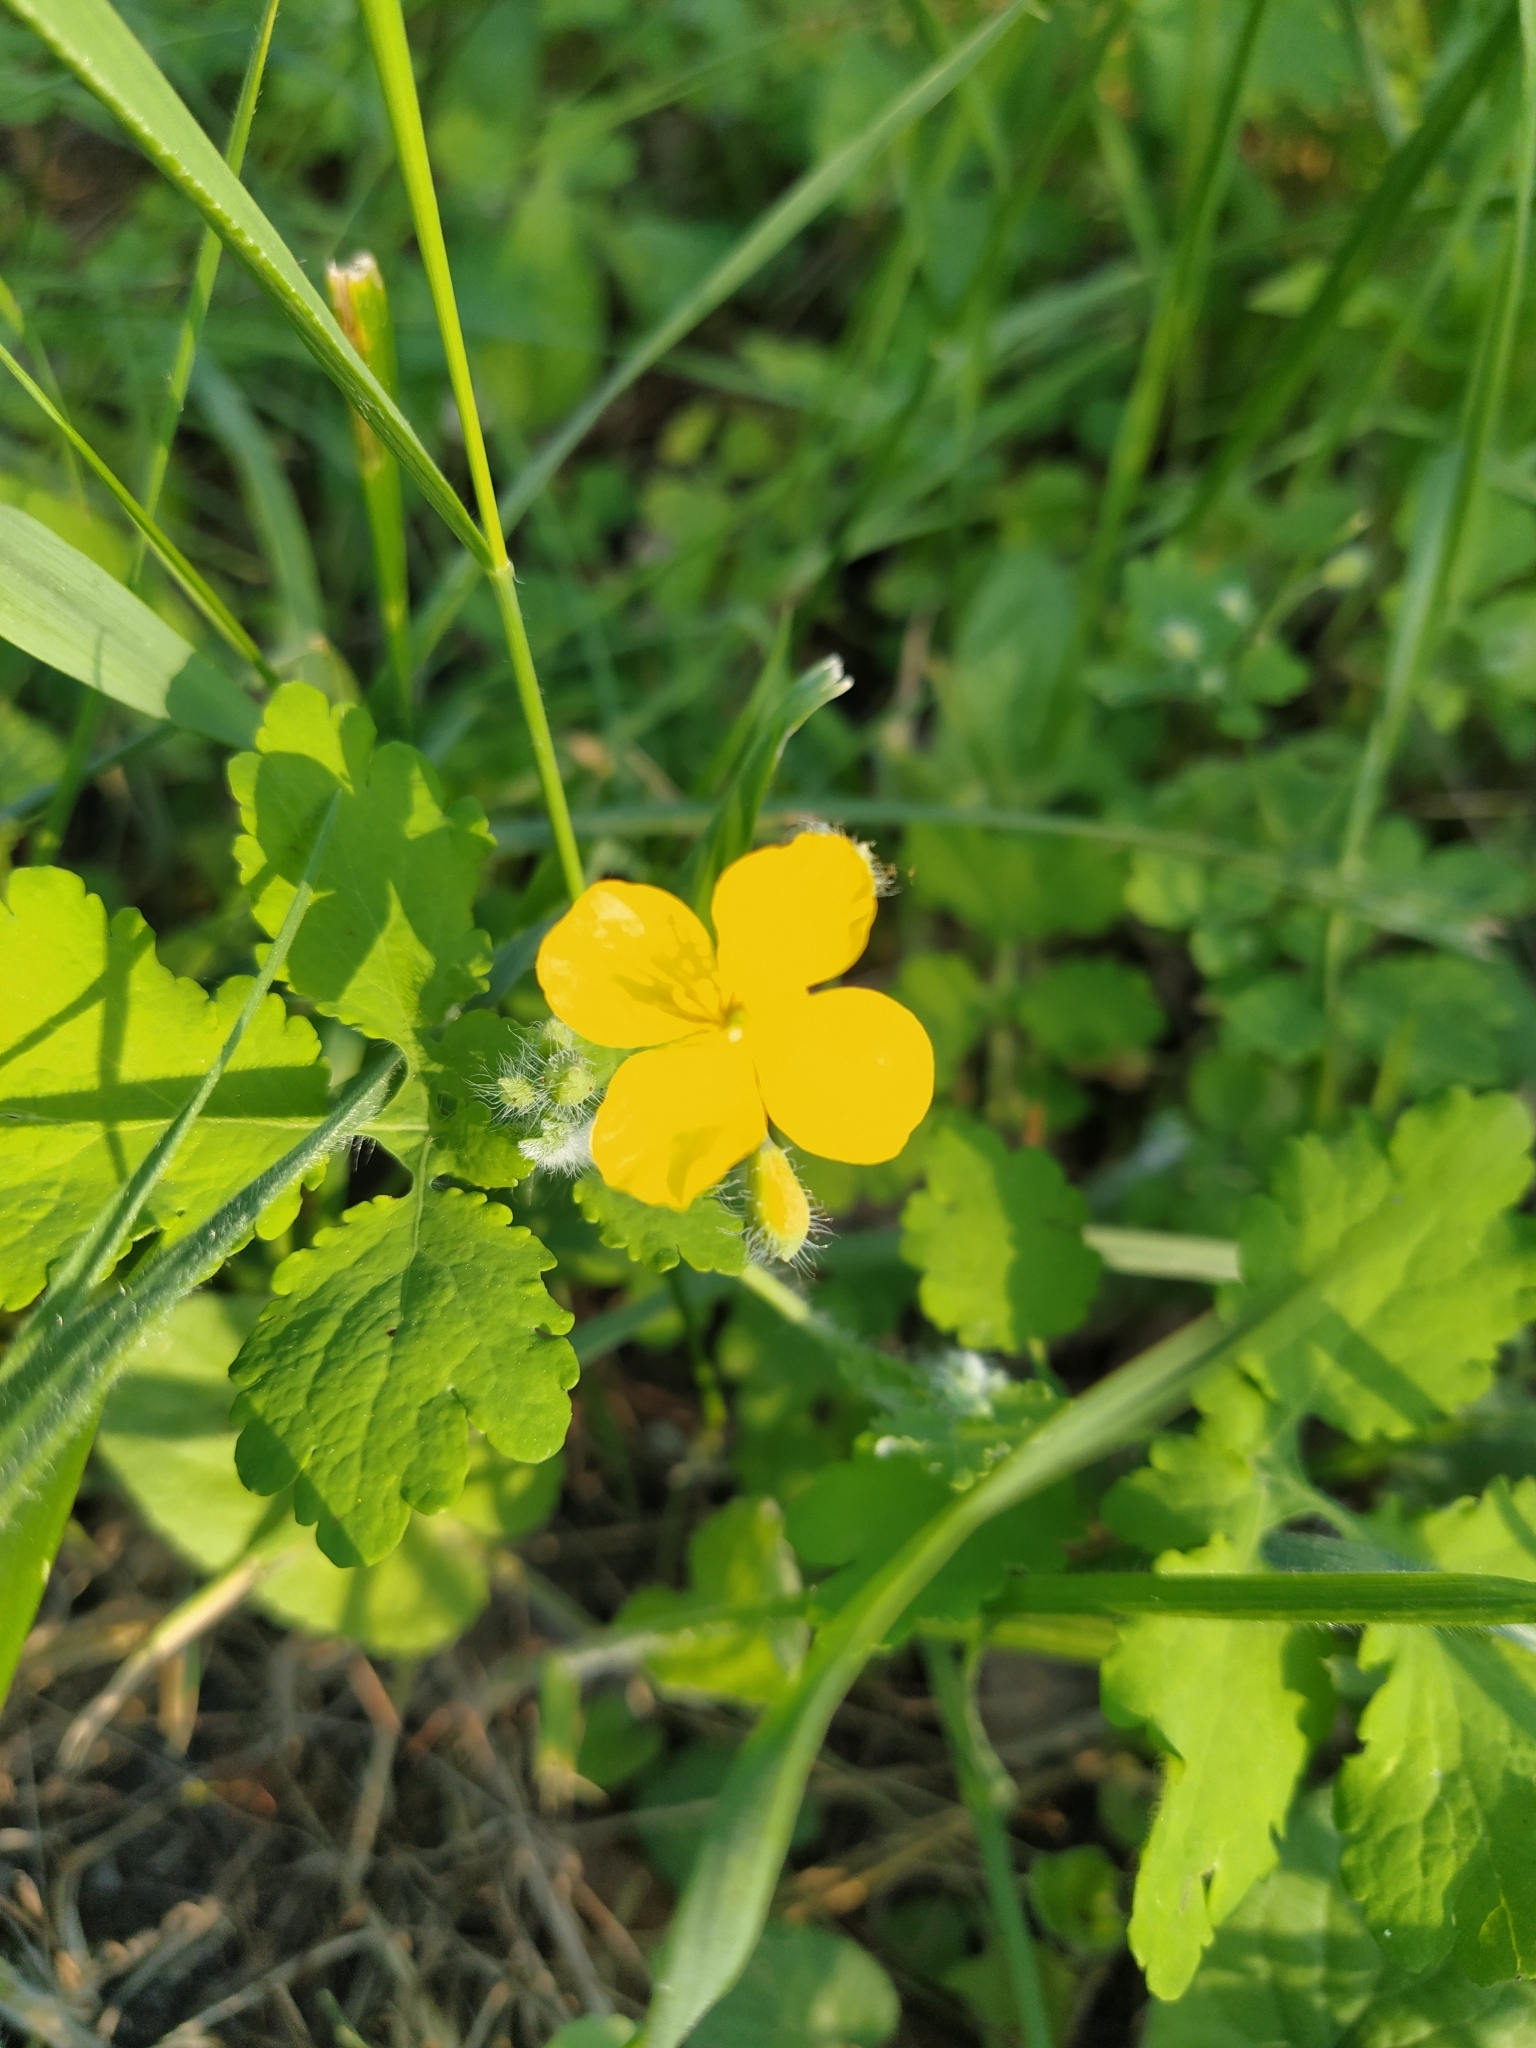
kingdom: Plantae
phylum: Tracheophyta
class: Magnoliopsida
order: Ranunculales
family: Papaveraceae
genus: Chelidonium
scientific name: Chelidonium majus
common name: Greater celandine
